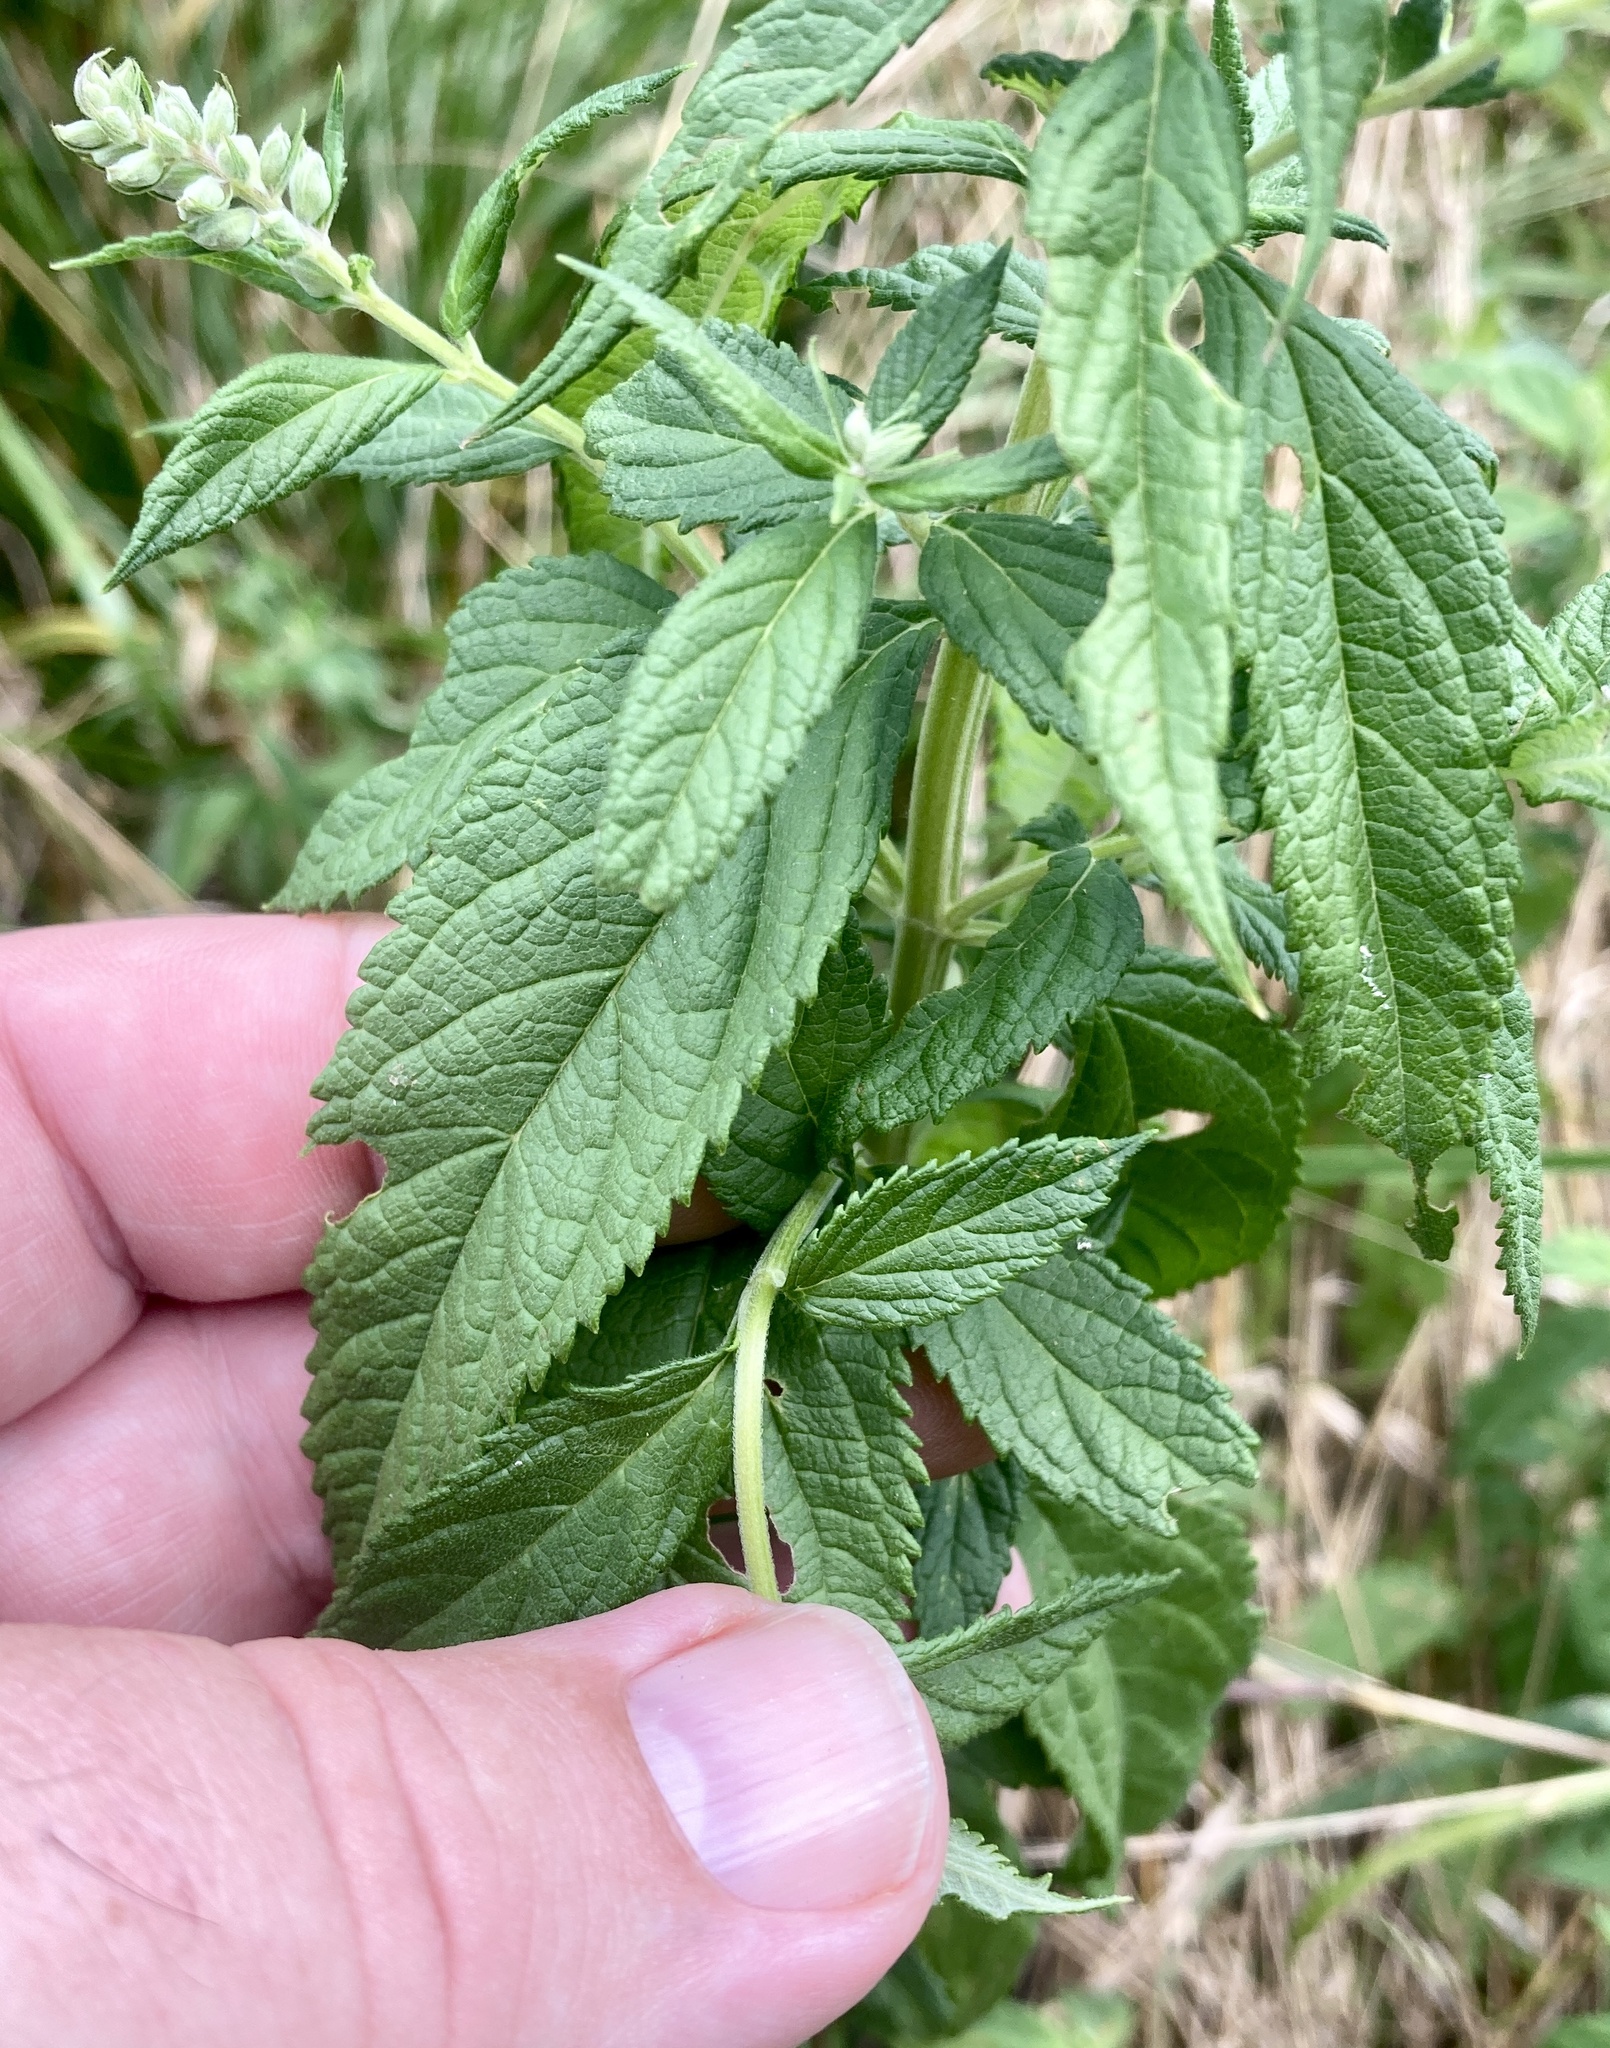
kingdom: Plantae
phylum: Tracheophyta
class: Magnoliopsida
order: Lamiales
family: Lamiaceae
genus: Teucrium
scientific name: Teucrium canadense
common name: American germander
